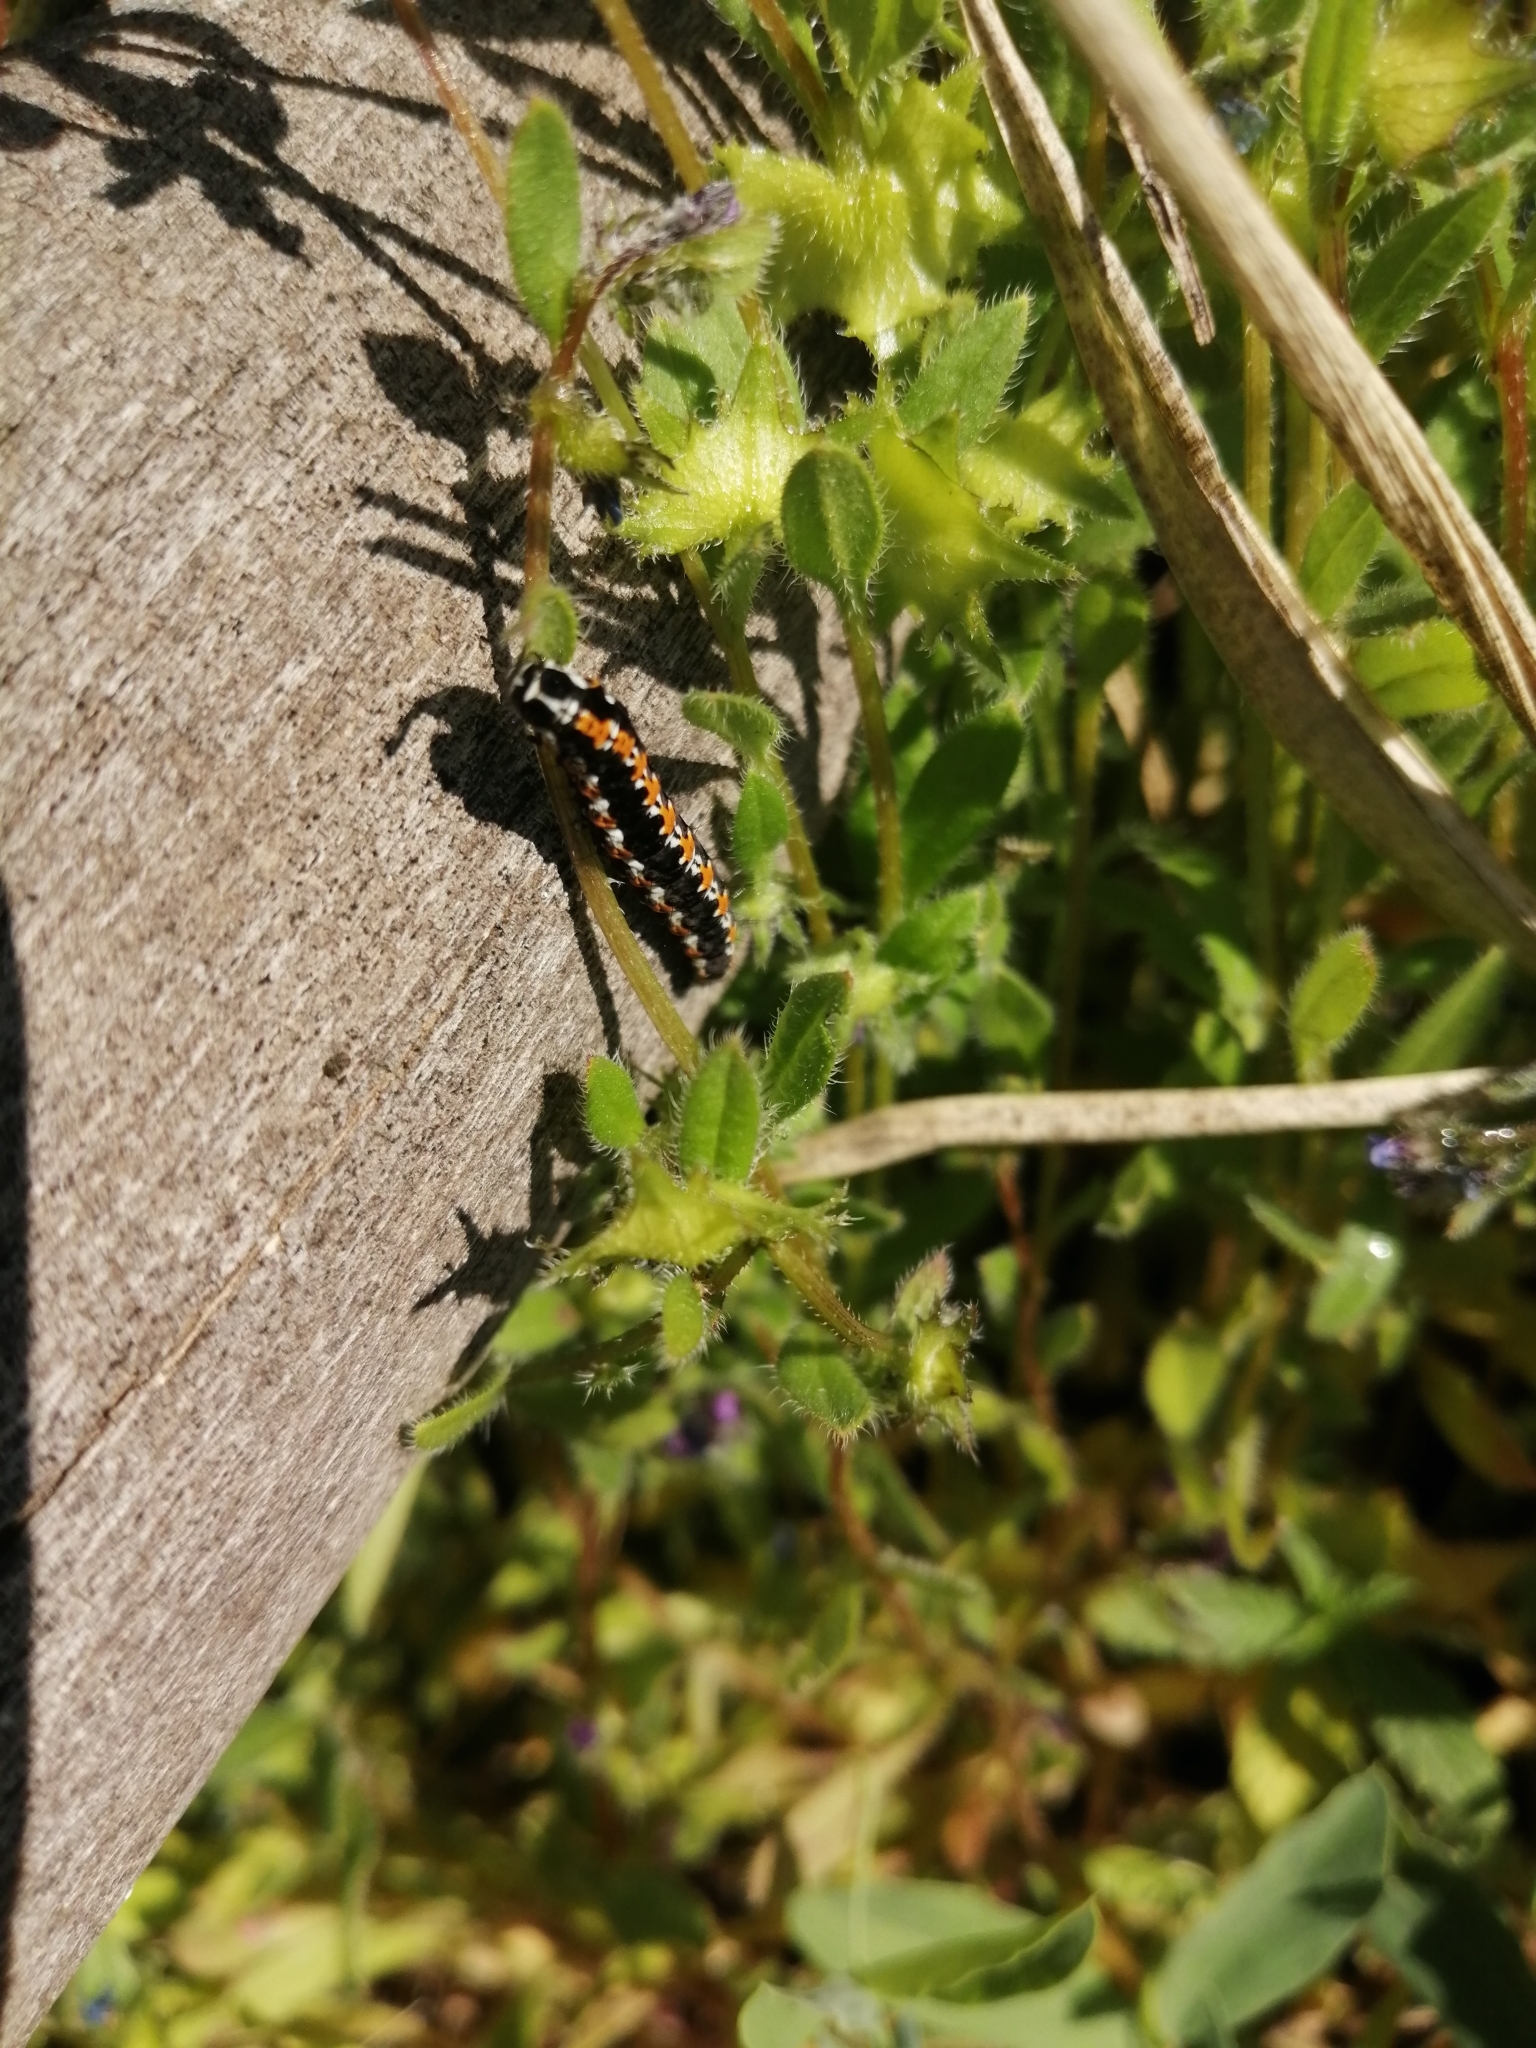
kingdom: Animalia
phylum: Arthropoda
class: Insecta
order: Lepidoptera
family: Ethmiidae
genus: Ethmia
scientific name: Ethmia pusiella
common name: Striped ermel
